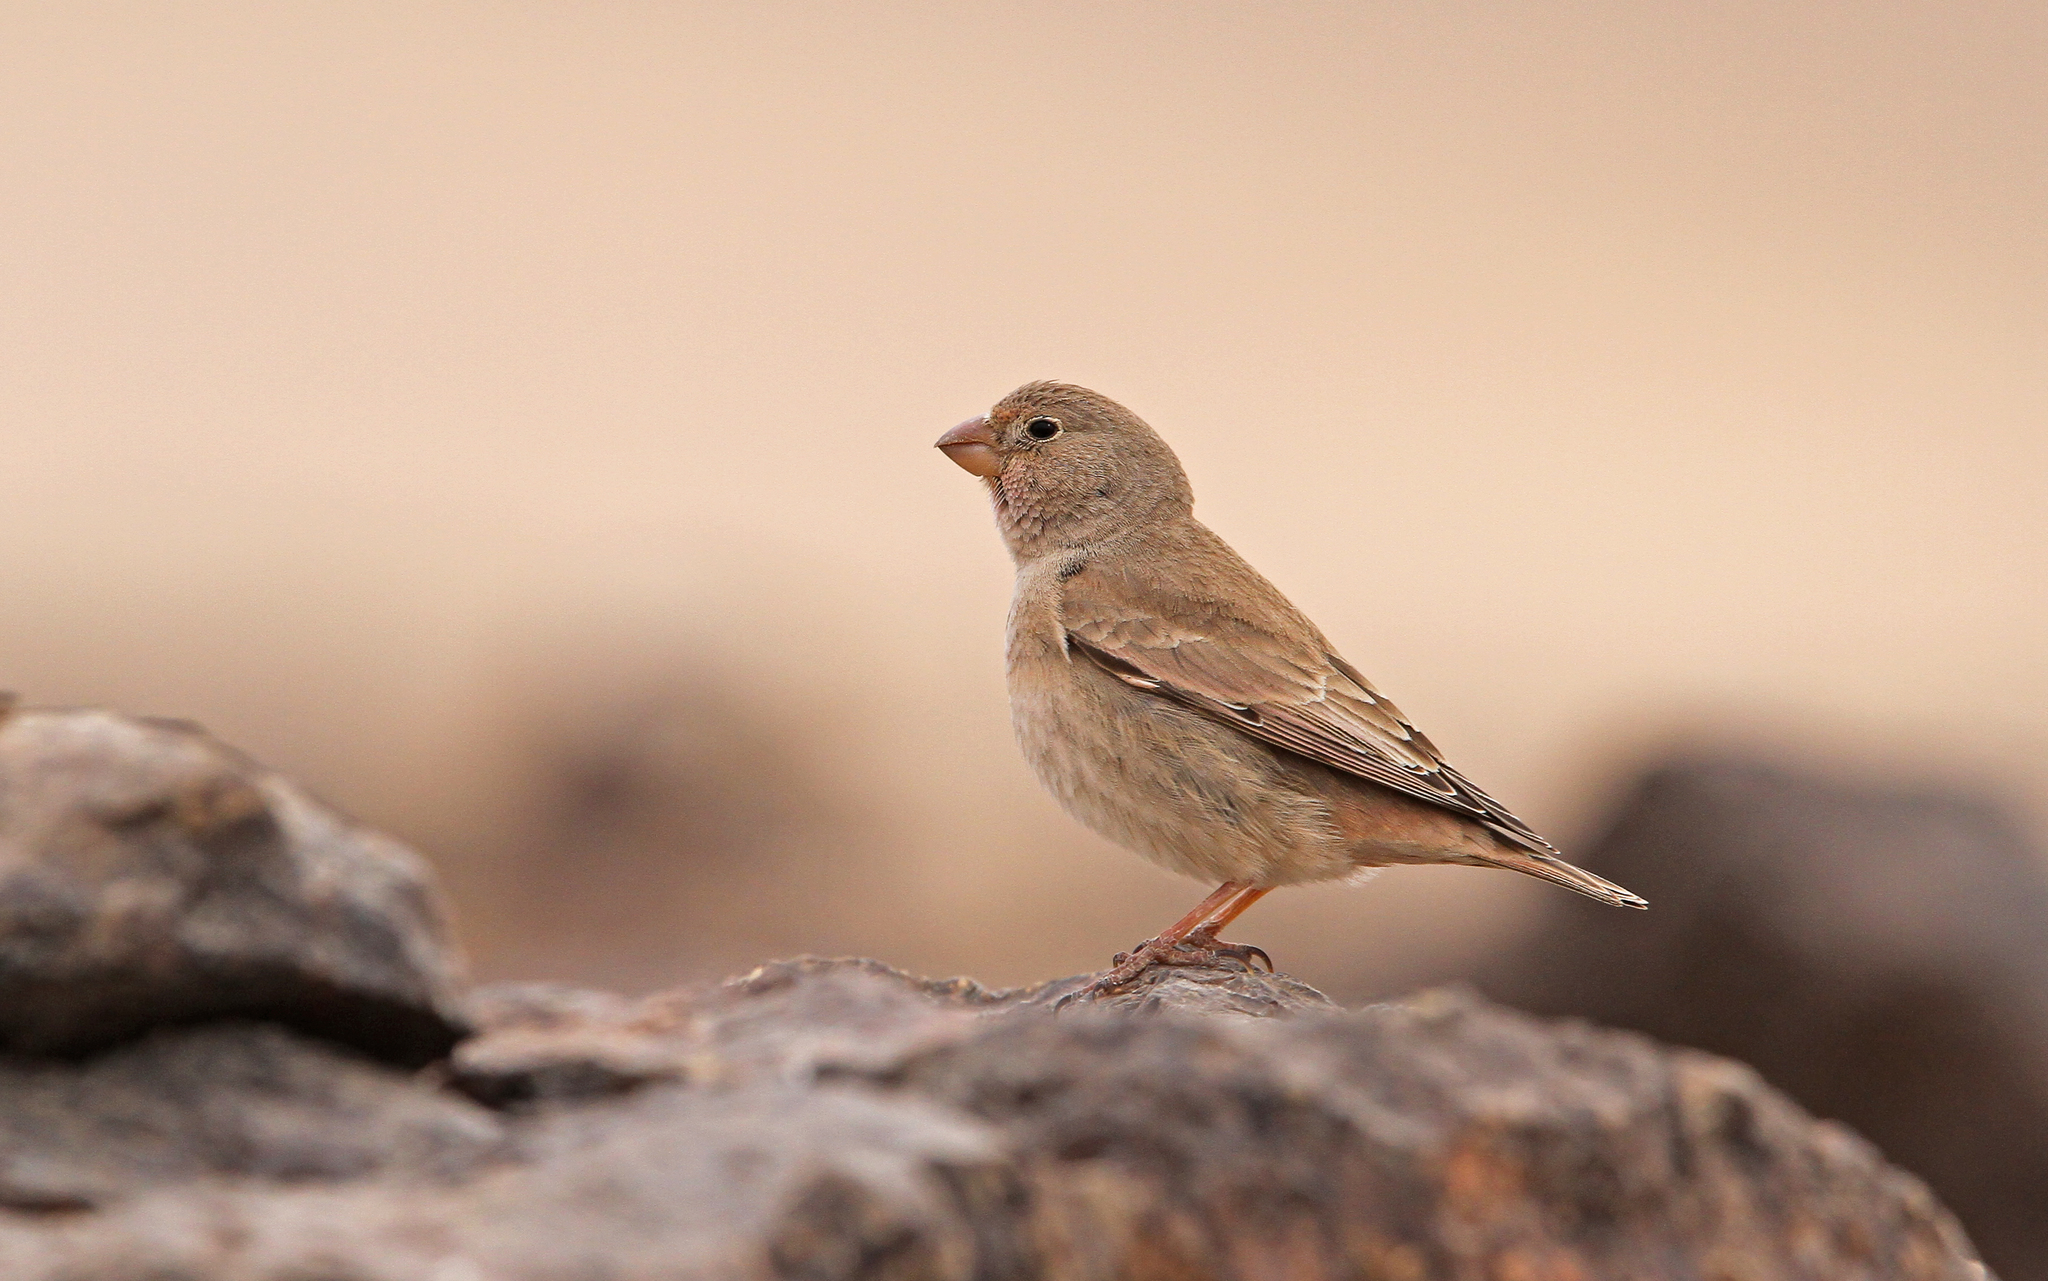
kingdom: Animalia
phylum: Chordata
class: Aves
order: Passeriformes
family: Fringillidae
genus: Bucanetes
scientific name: Bucanetes githagineus
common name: Trumpeter finch
